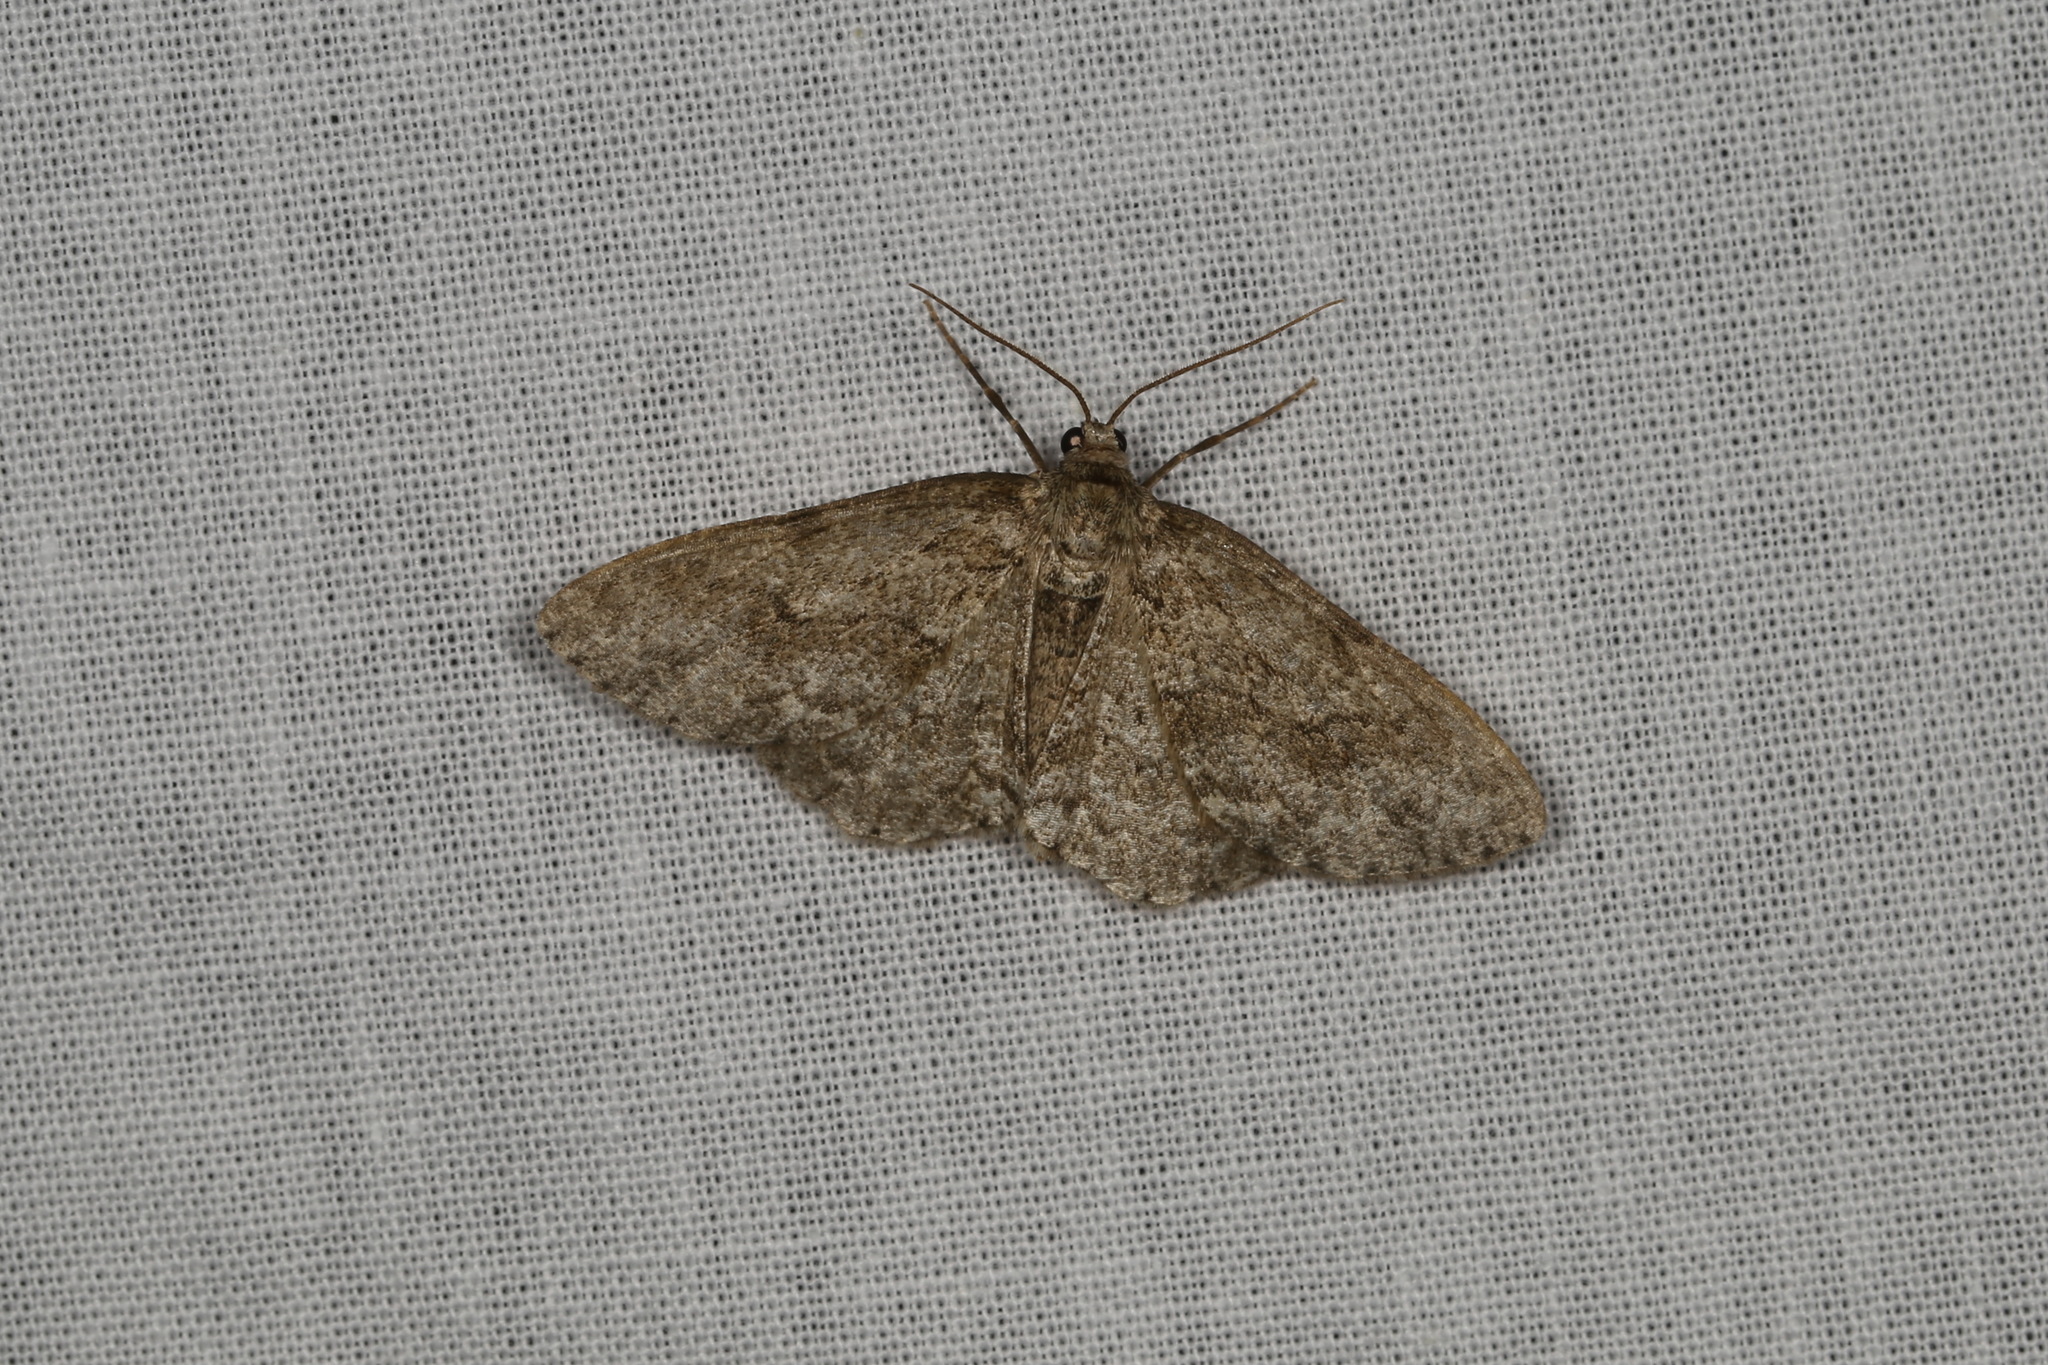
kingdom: Animalia
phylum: Arthropoda
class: Insecta
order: Lepidoptera
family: Geometridae
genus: Ectropis
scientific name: Ectropis crepuscularia
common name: Engrailed
